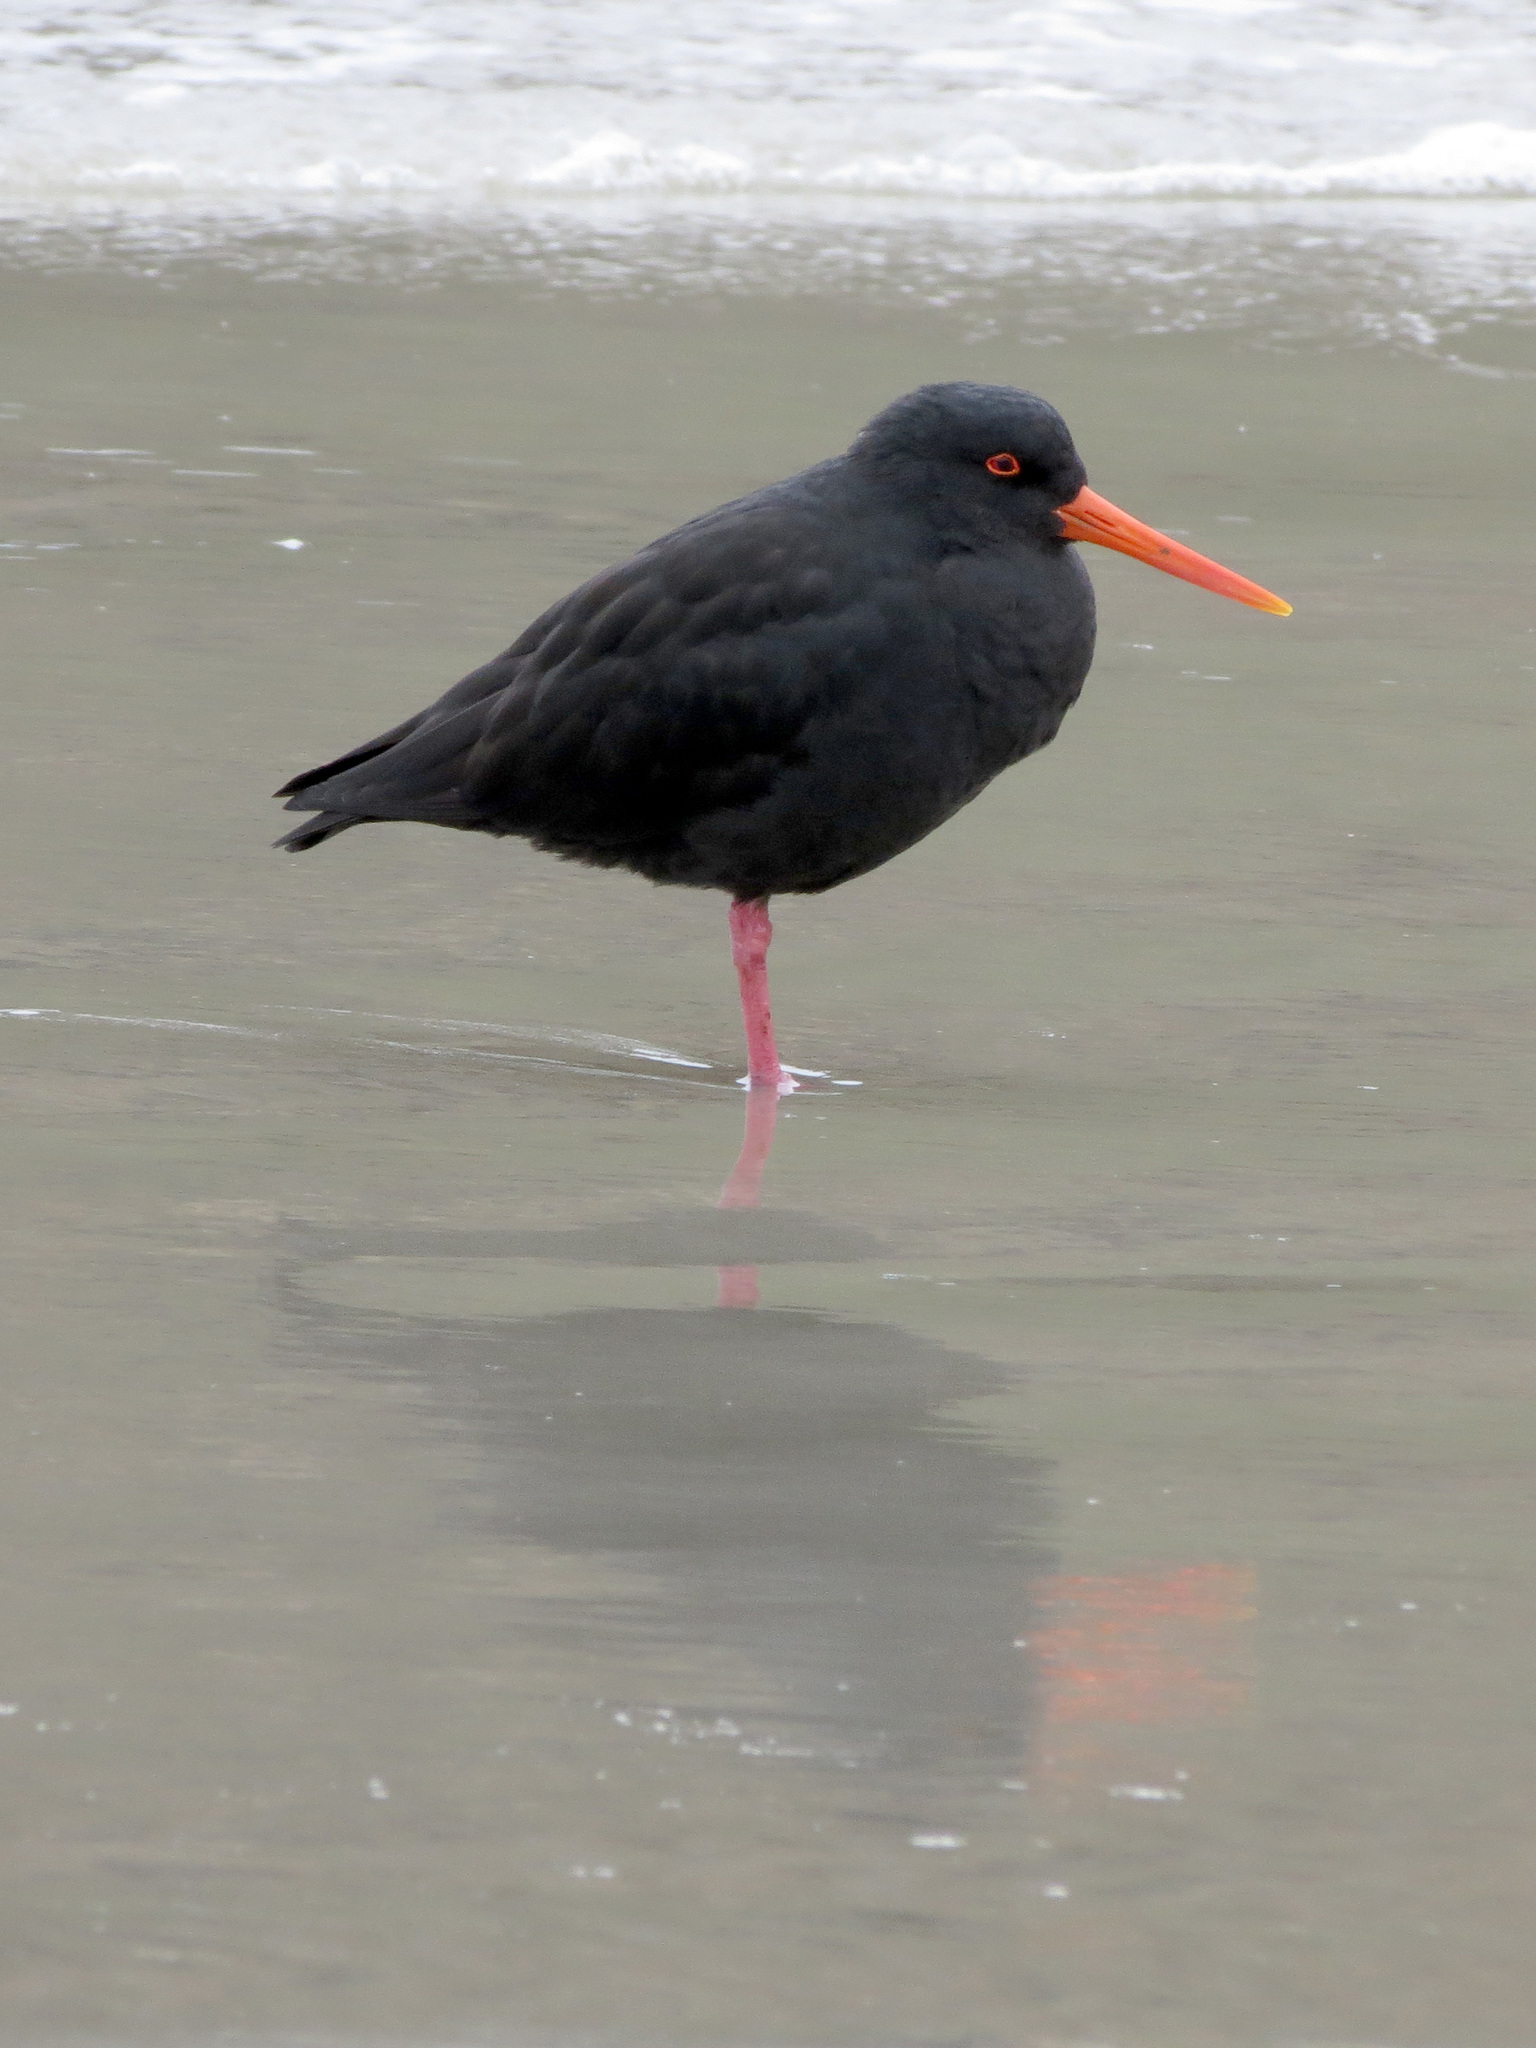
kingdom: Animalia
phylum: Chordata
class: Aves
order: Charadriiformes
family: Haematopodidae
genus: Haematopus
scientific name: Haematopus unicolor
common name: Variable oystercatcher
